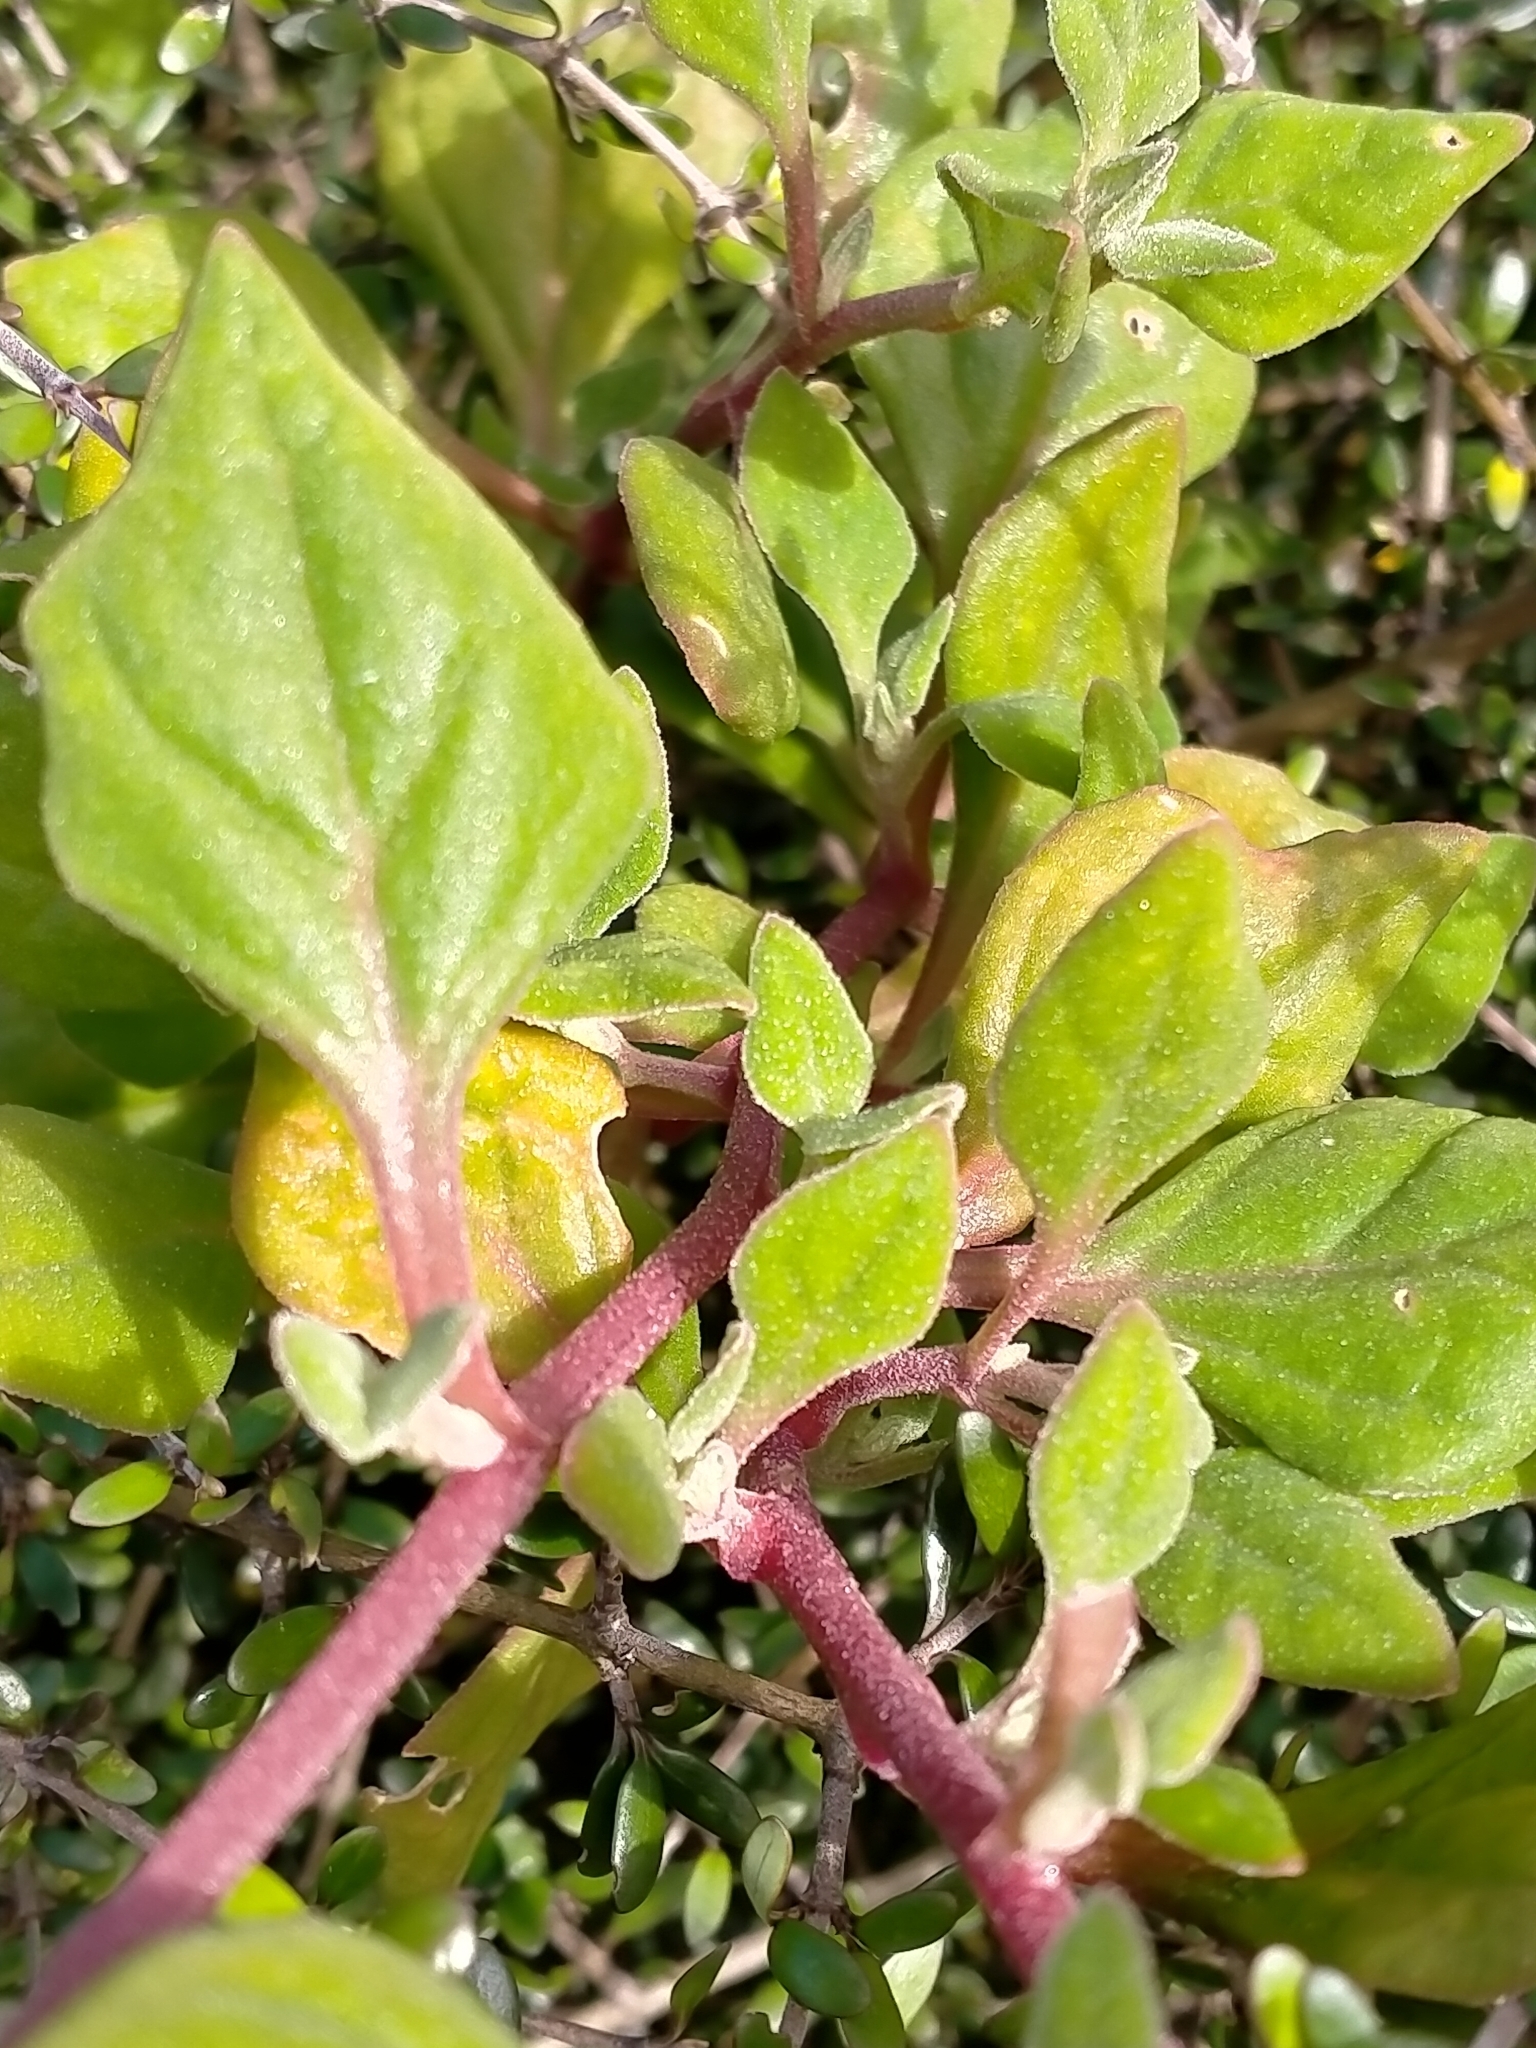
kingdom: Plantae
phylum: Tracheophyta
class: Magnoliopsida
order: Caryophyllales
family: Aizoaceae
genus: Tetragonia
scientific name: Tetragonia implexicoma
